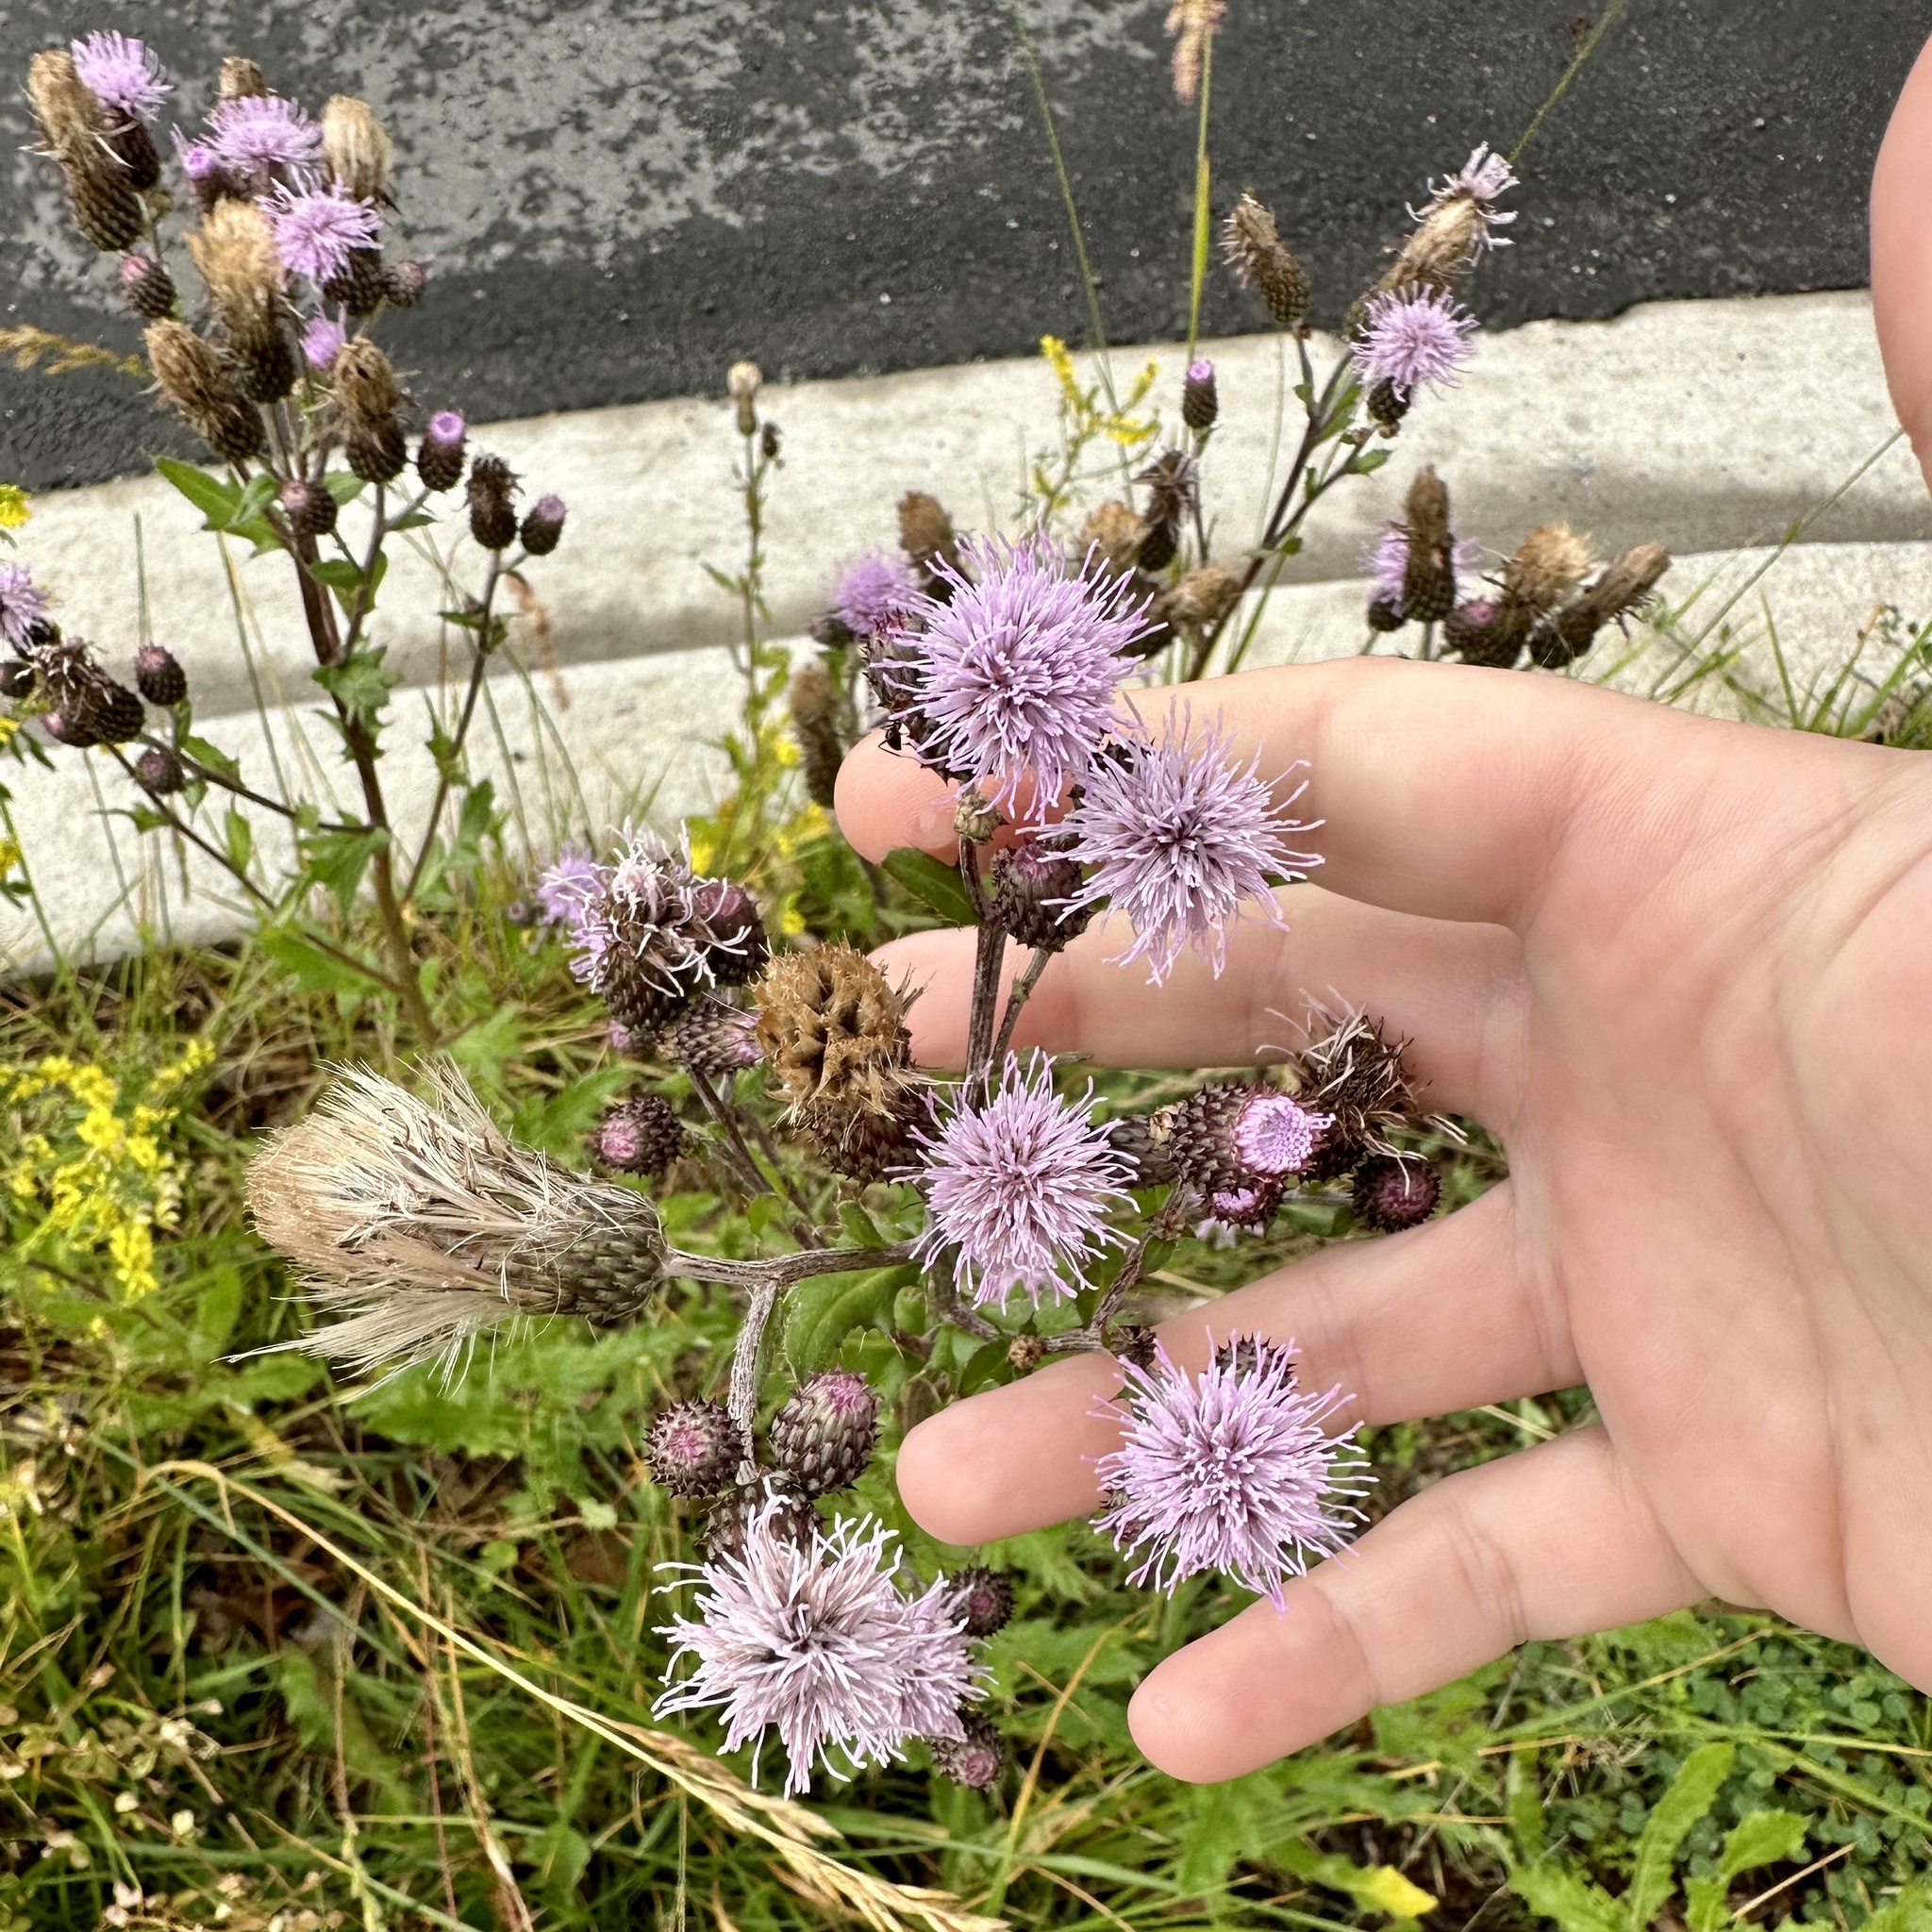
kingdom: Plantae
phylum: Tracheophyta
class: Magnoliopsida
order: Asterales
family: Asteraceae
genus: Cirsium
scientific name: Cirsium arvense
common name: Creeping thistle
